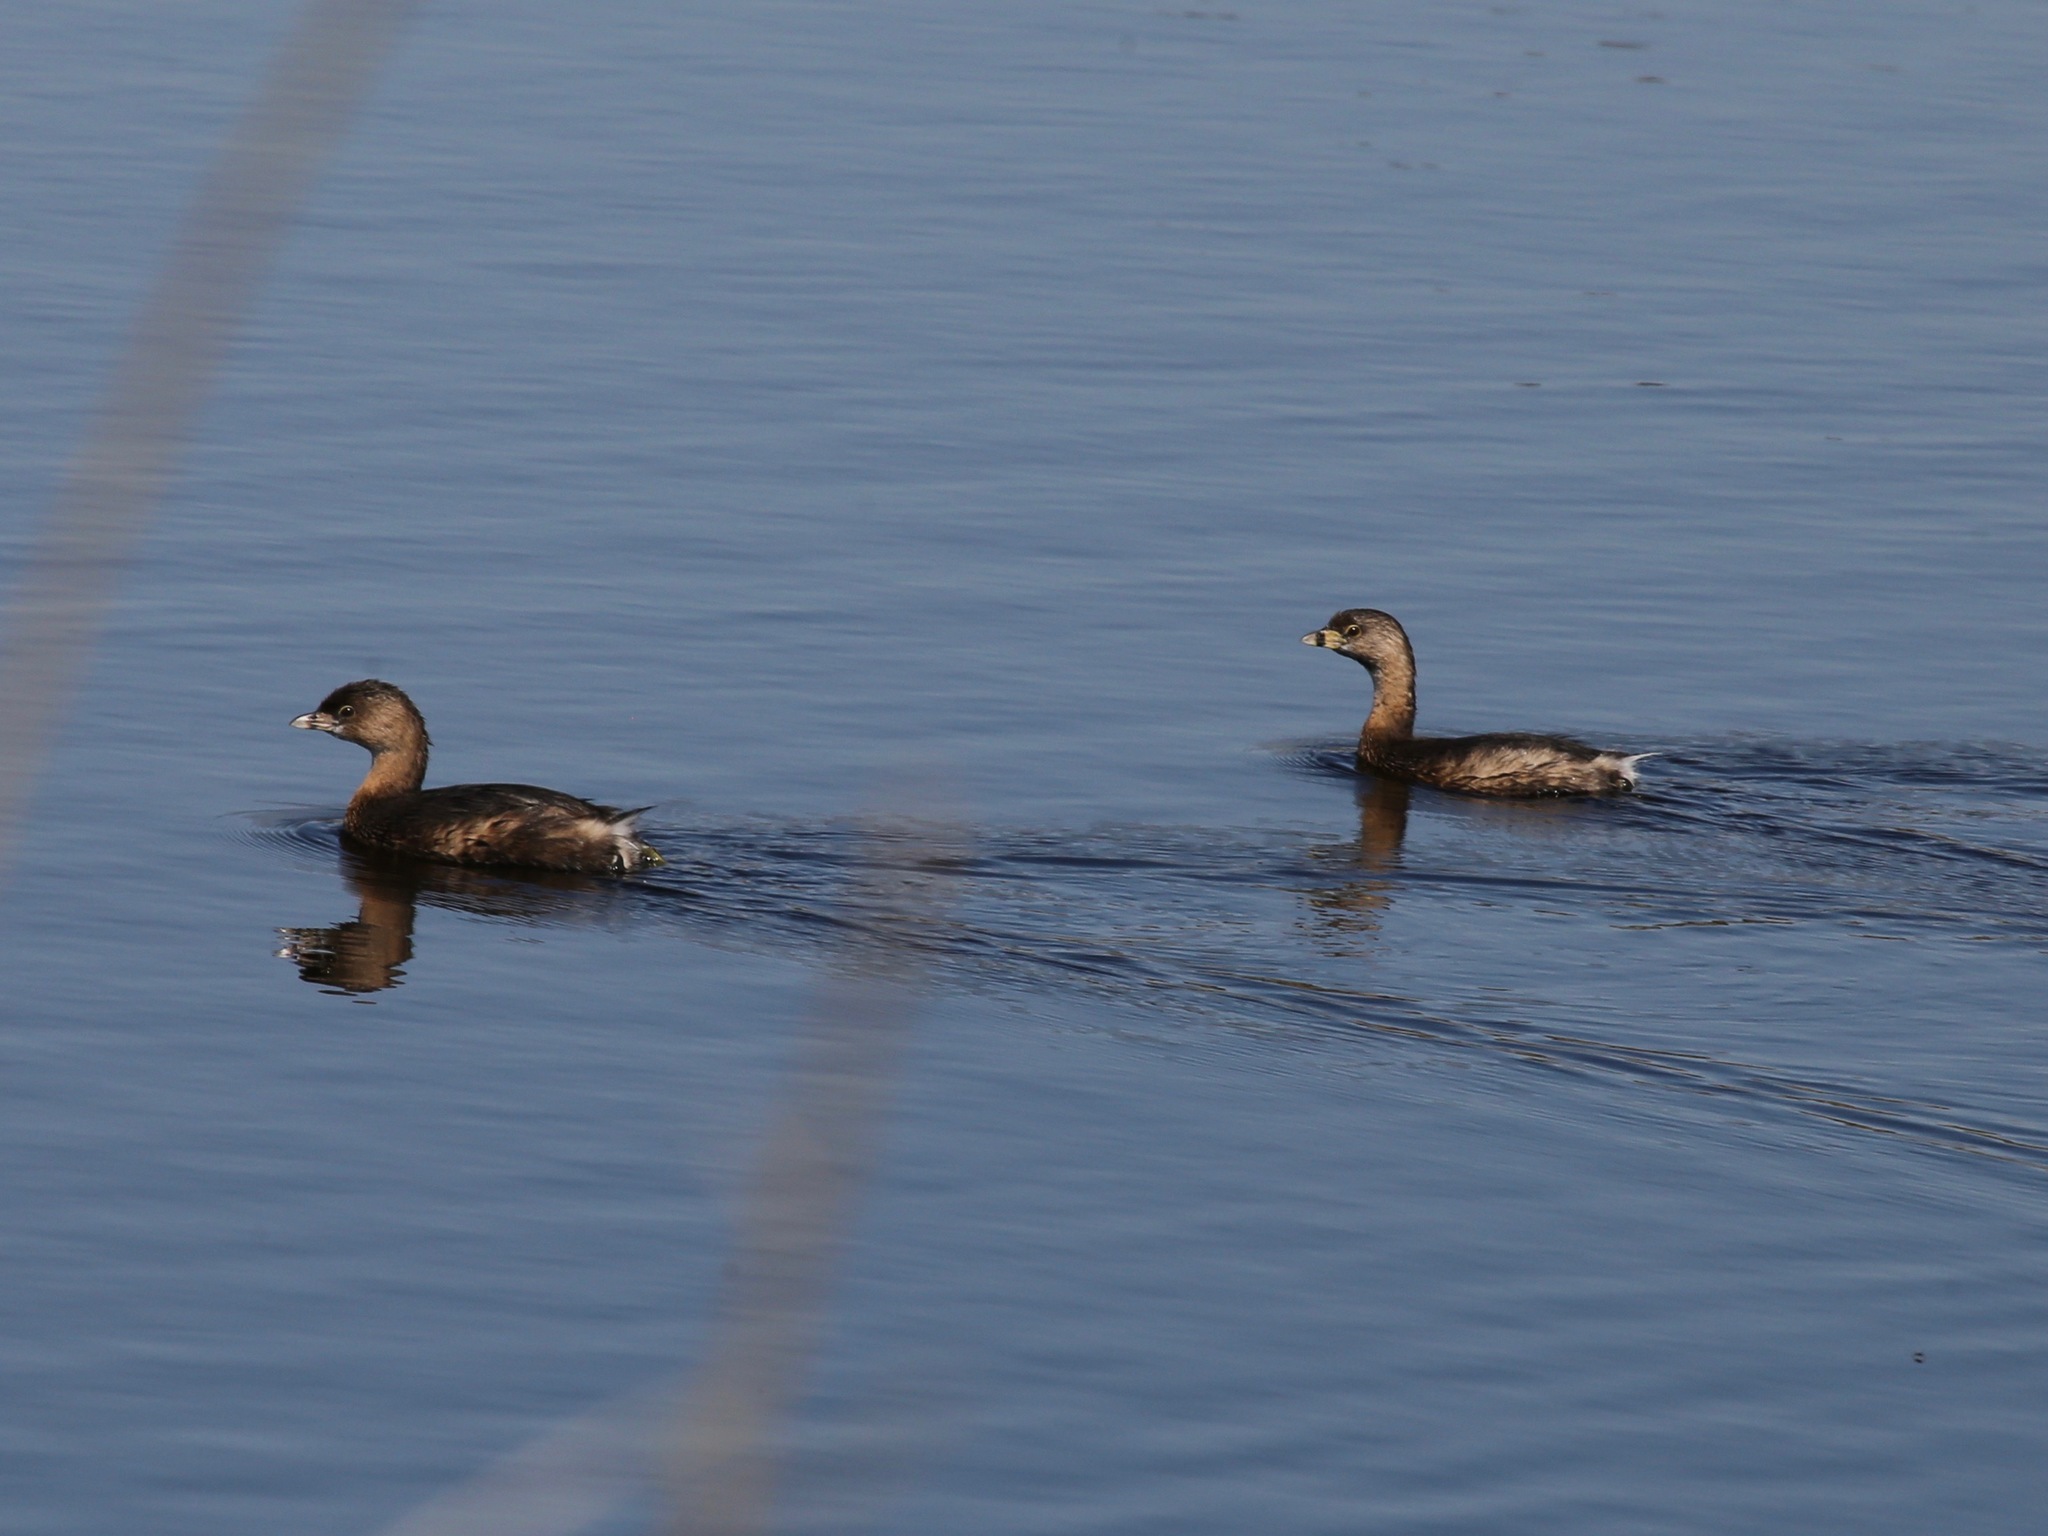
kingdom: Animalia
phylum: Chordata
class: Aves
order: Podicipediformes
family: Podicipedidae
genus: Podilymbus
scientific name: Podilymbus podiceps
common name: Pied-billed grebe
